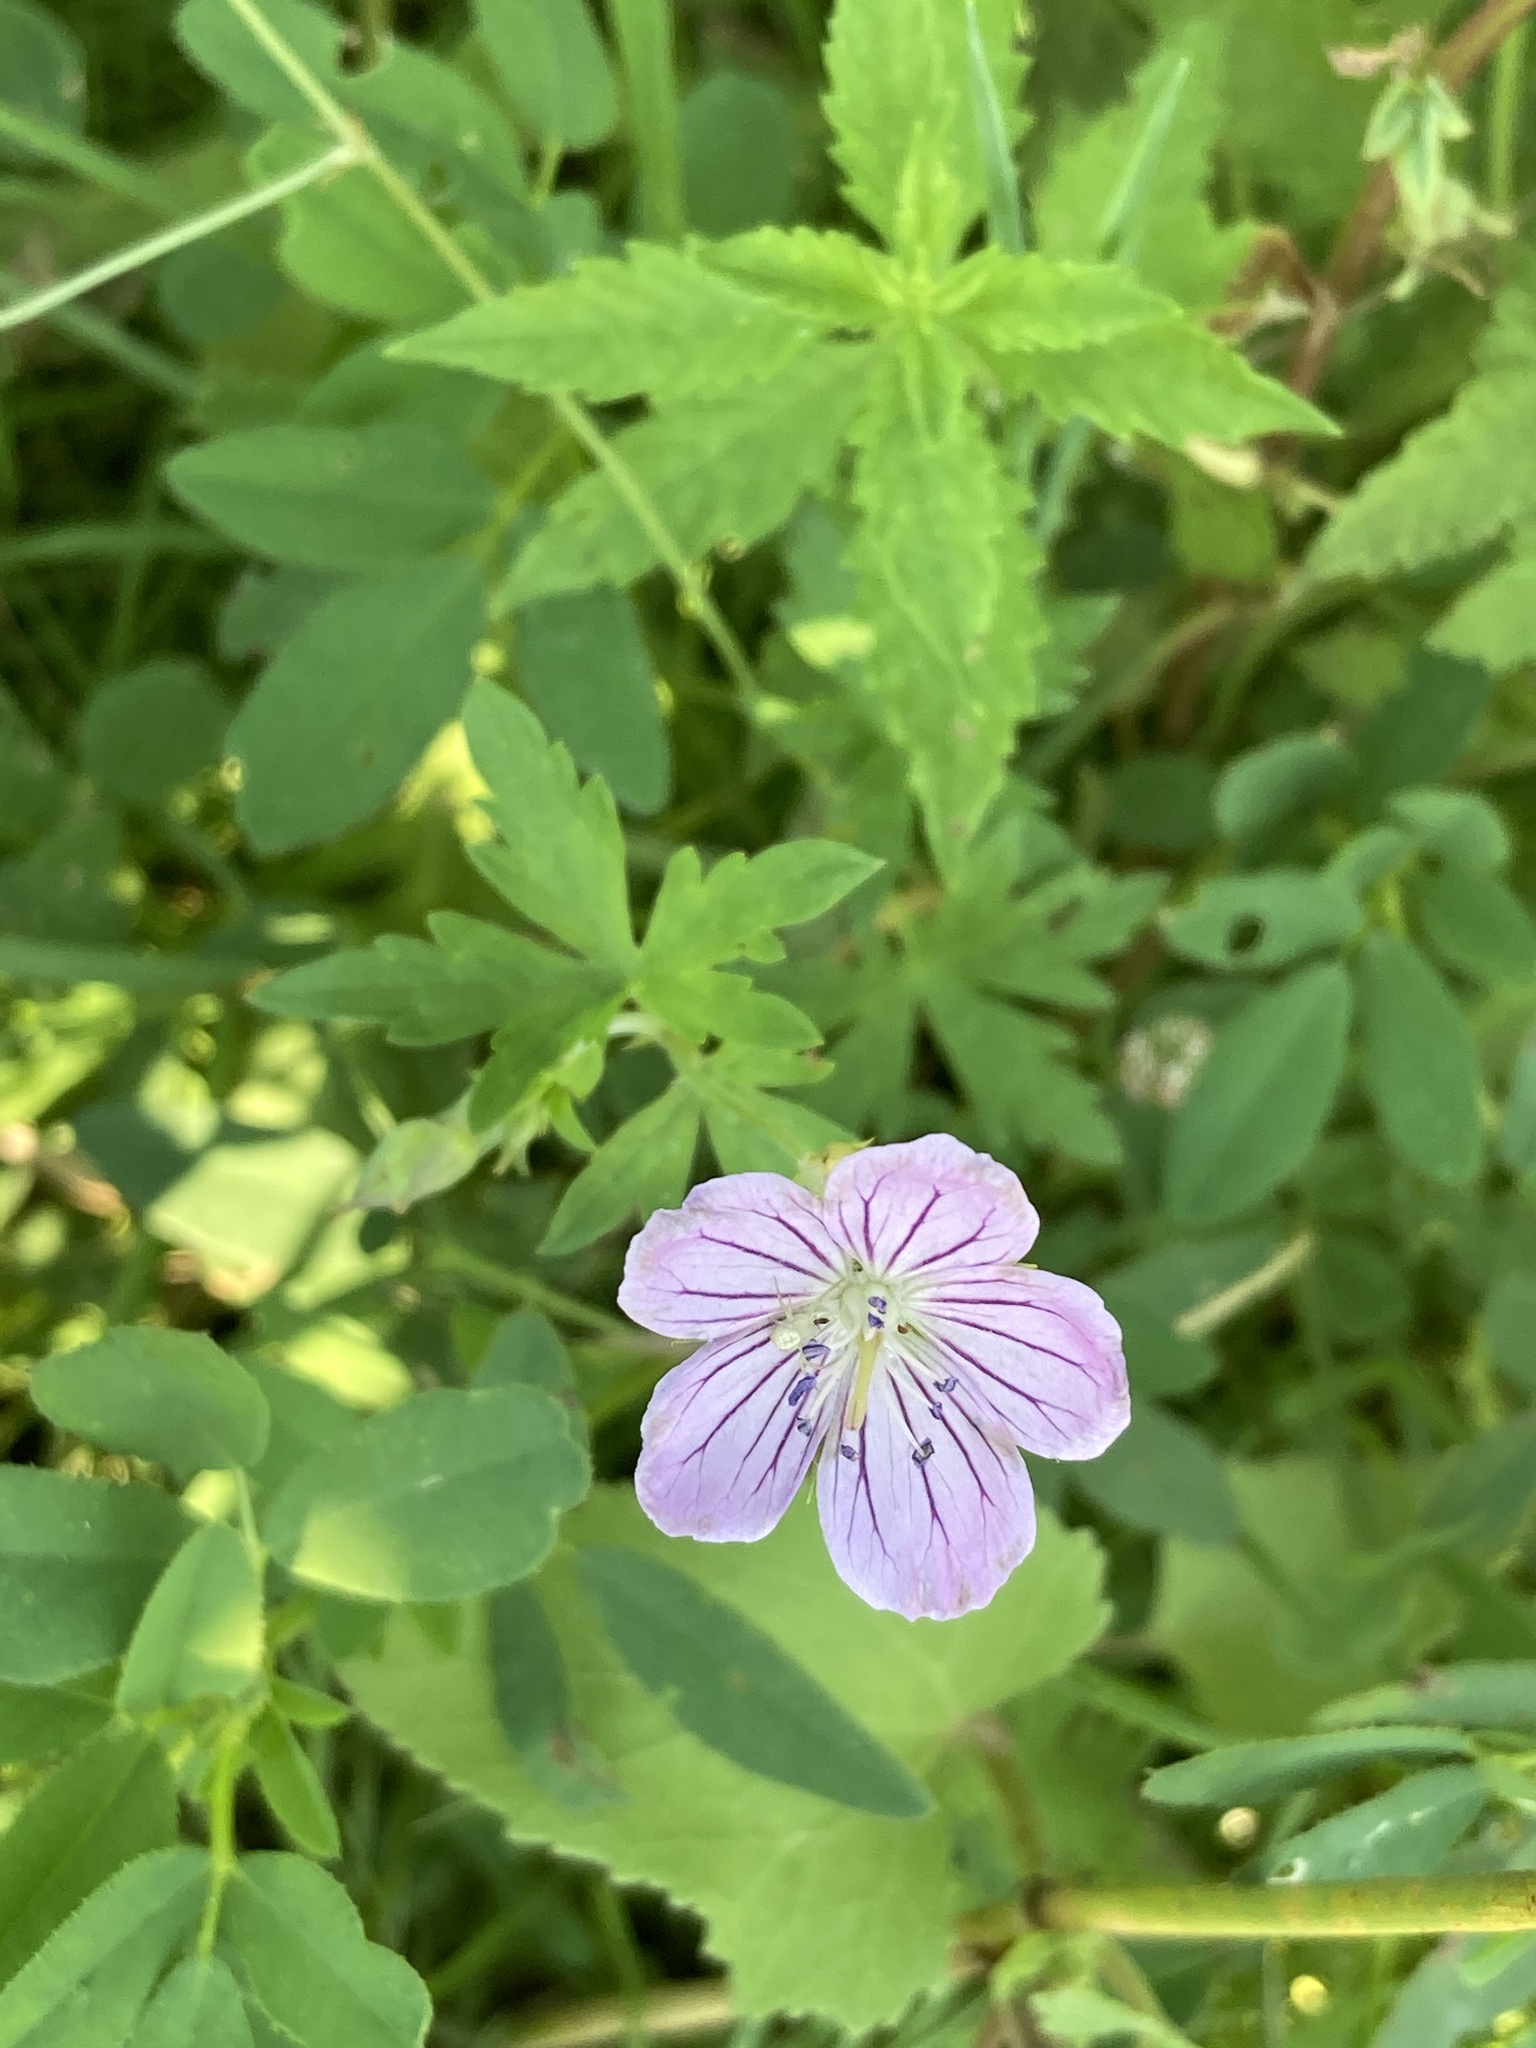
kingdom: Plantae
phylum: Tracheophyta
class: Magnoliopsida
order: Geraniales
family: Geraniaceae
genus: Geranium
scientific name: Geranium collinum
